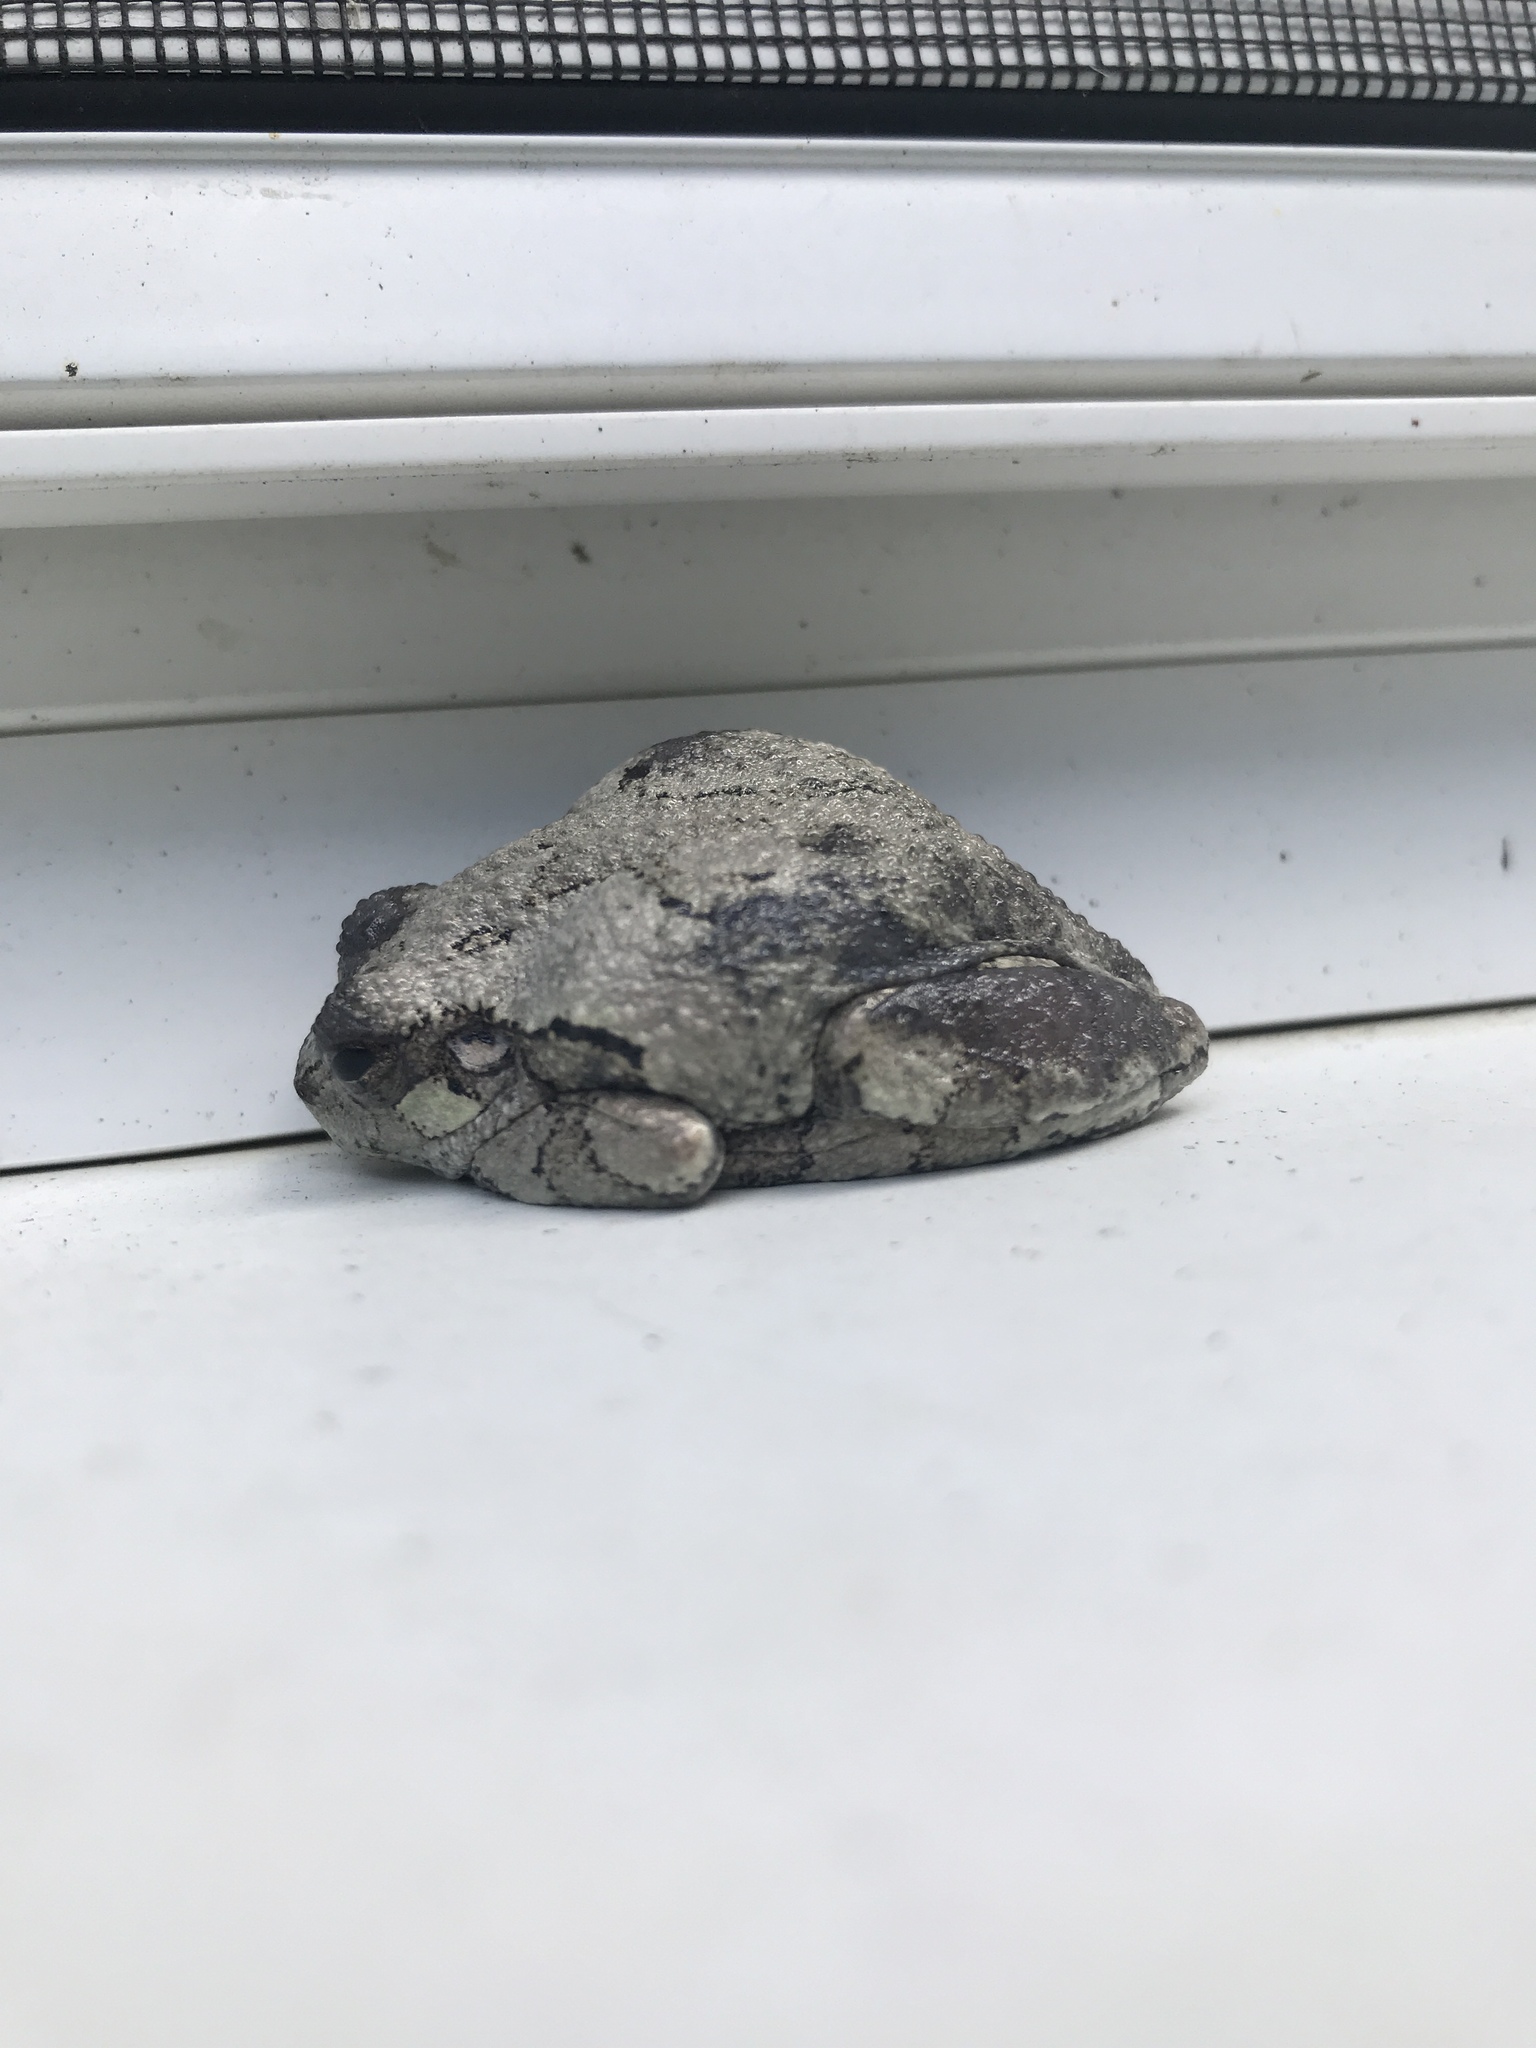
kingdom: Animalia
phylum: Chordata
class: Amphibia
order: Anura
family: Hylidae
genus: Dryophytes
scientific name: Dryophytes versicolor
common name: Gray treefrog
